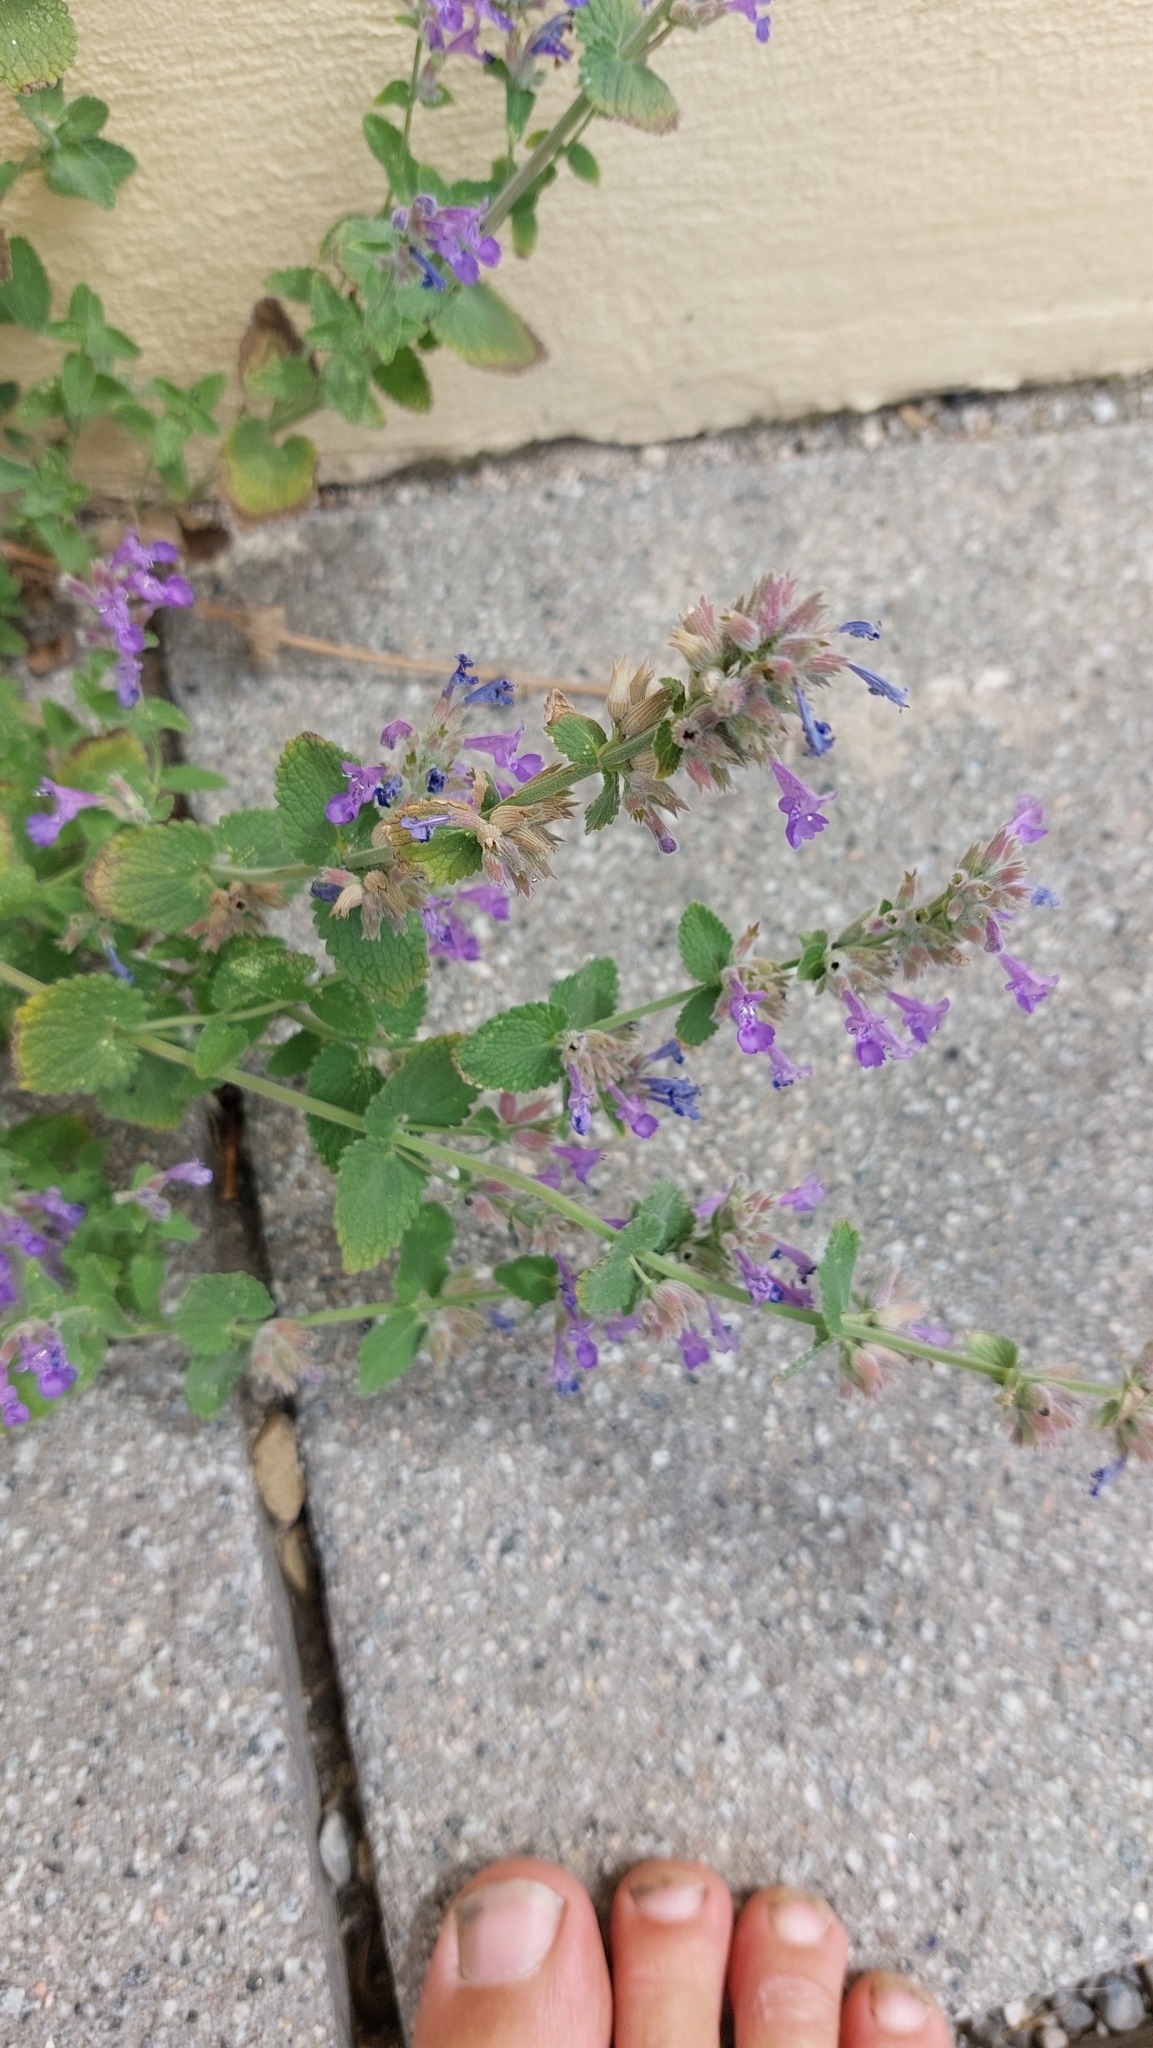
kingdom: Plantae
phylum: Tracheophyta
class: Magnoliopsida
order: Lamiales
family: Lamiaceae
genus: Nepeta
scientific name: Nepeta racemosa
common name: Raceme catnip
